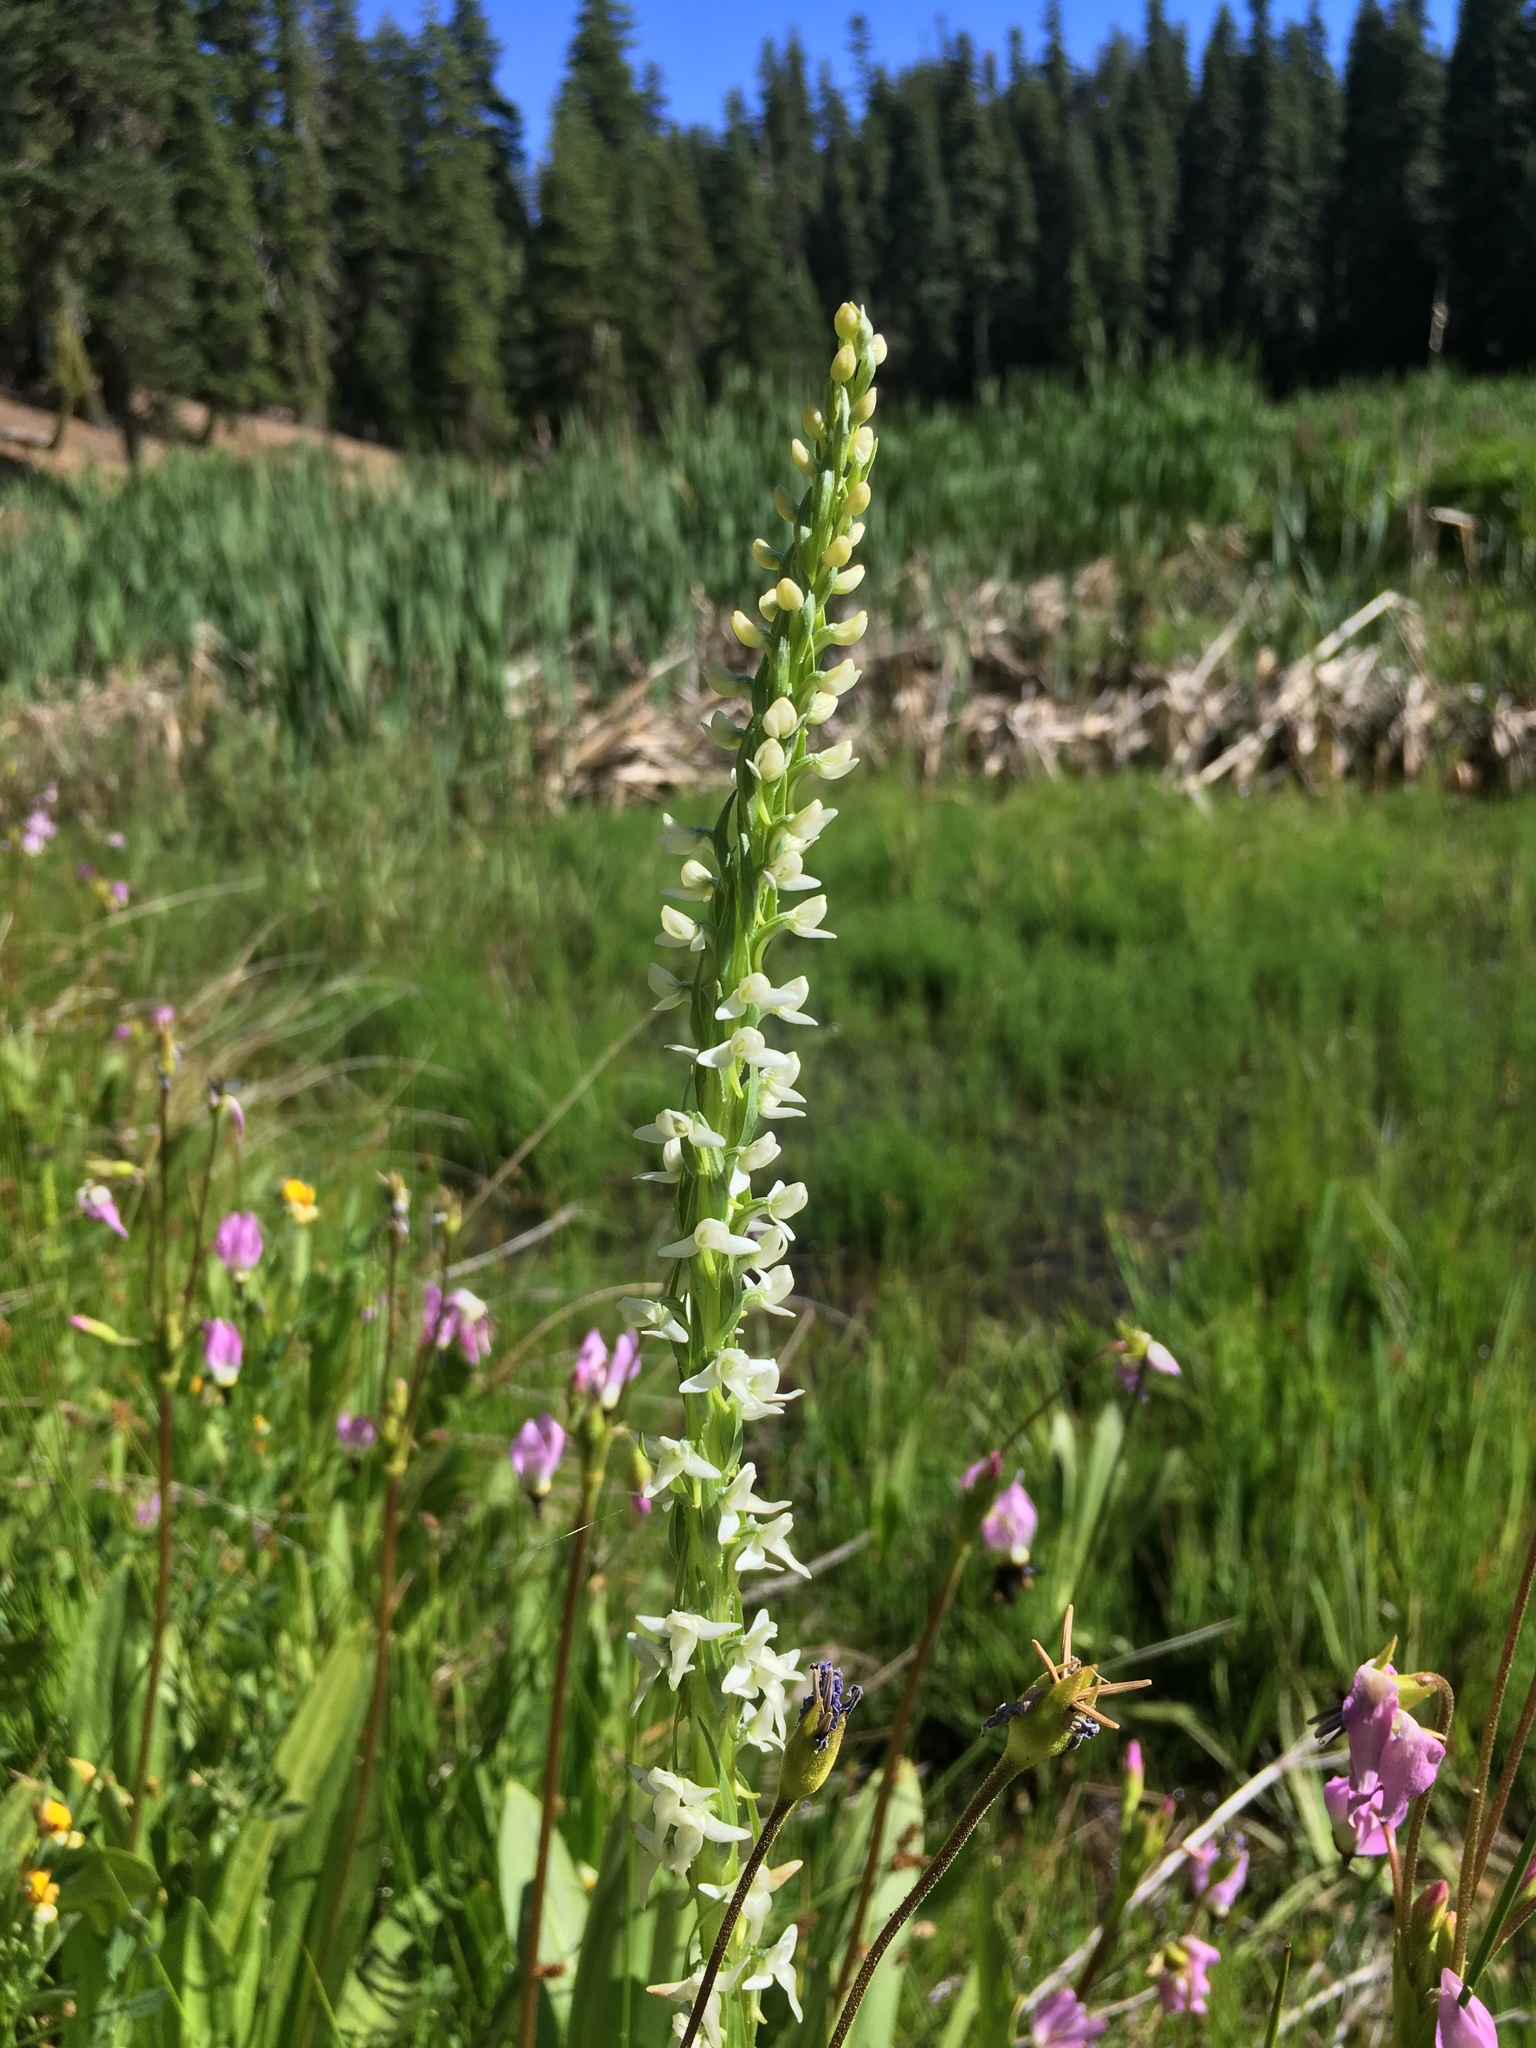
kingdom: Plantae
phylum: Tracheophyta
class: Liliopsida
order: Asparagales
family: Orchidaceae
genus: Platanthera
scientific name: Platanthera dilatata
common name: Bog candles
